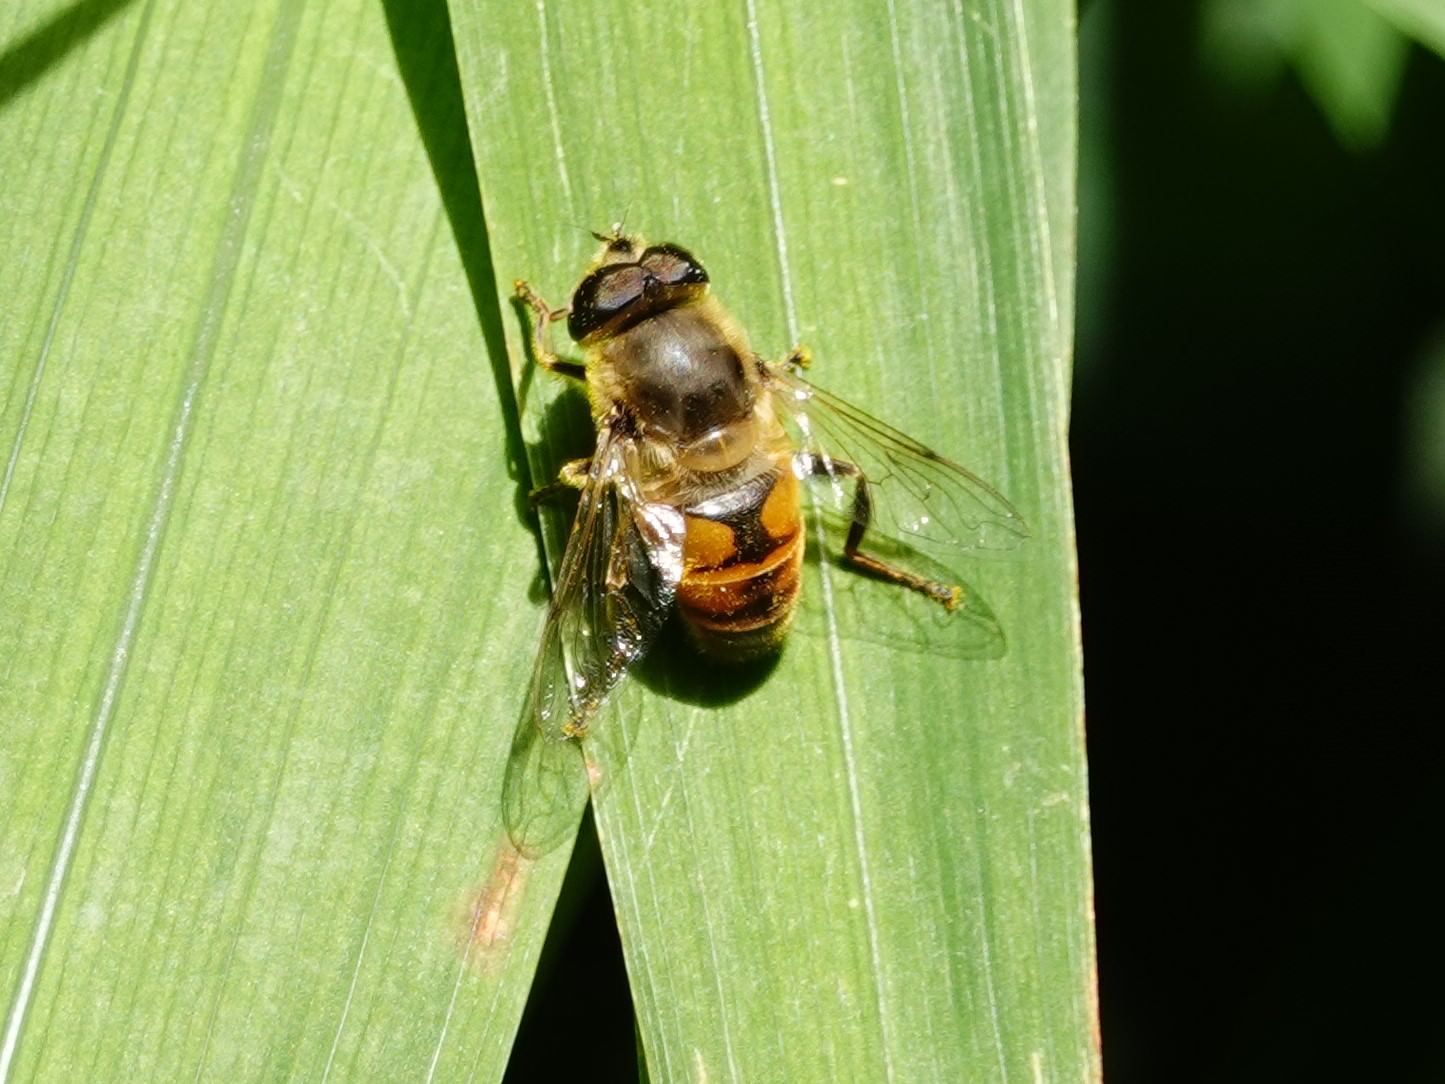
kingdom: Animalia
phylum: Arthropoda
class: Insecta
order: Diptera
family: Syrphidae
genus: Eristalis
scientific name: Eristalis tenax
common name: Drone fly
